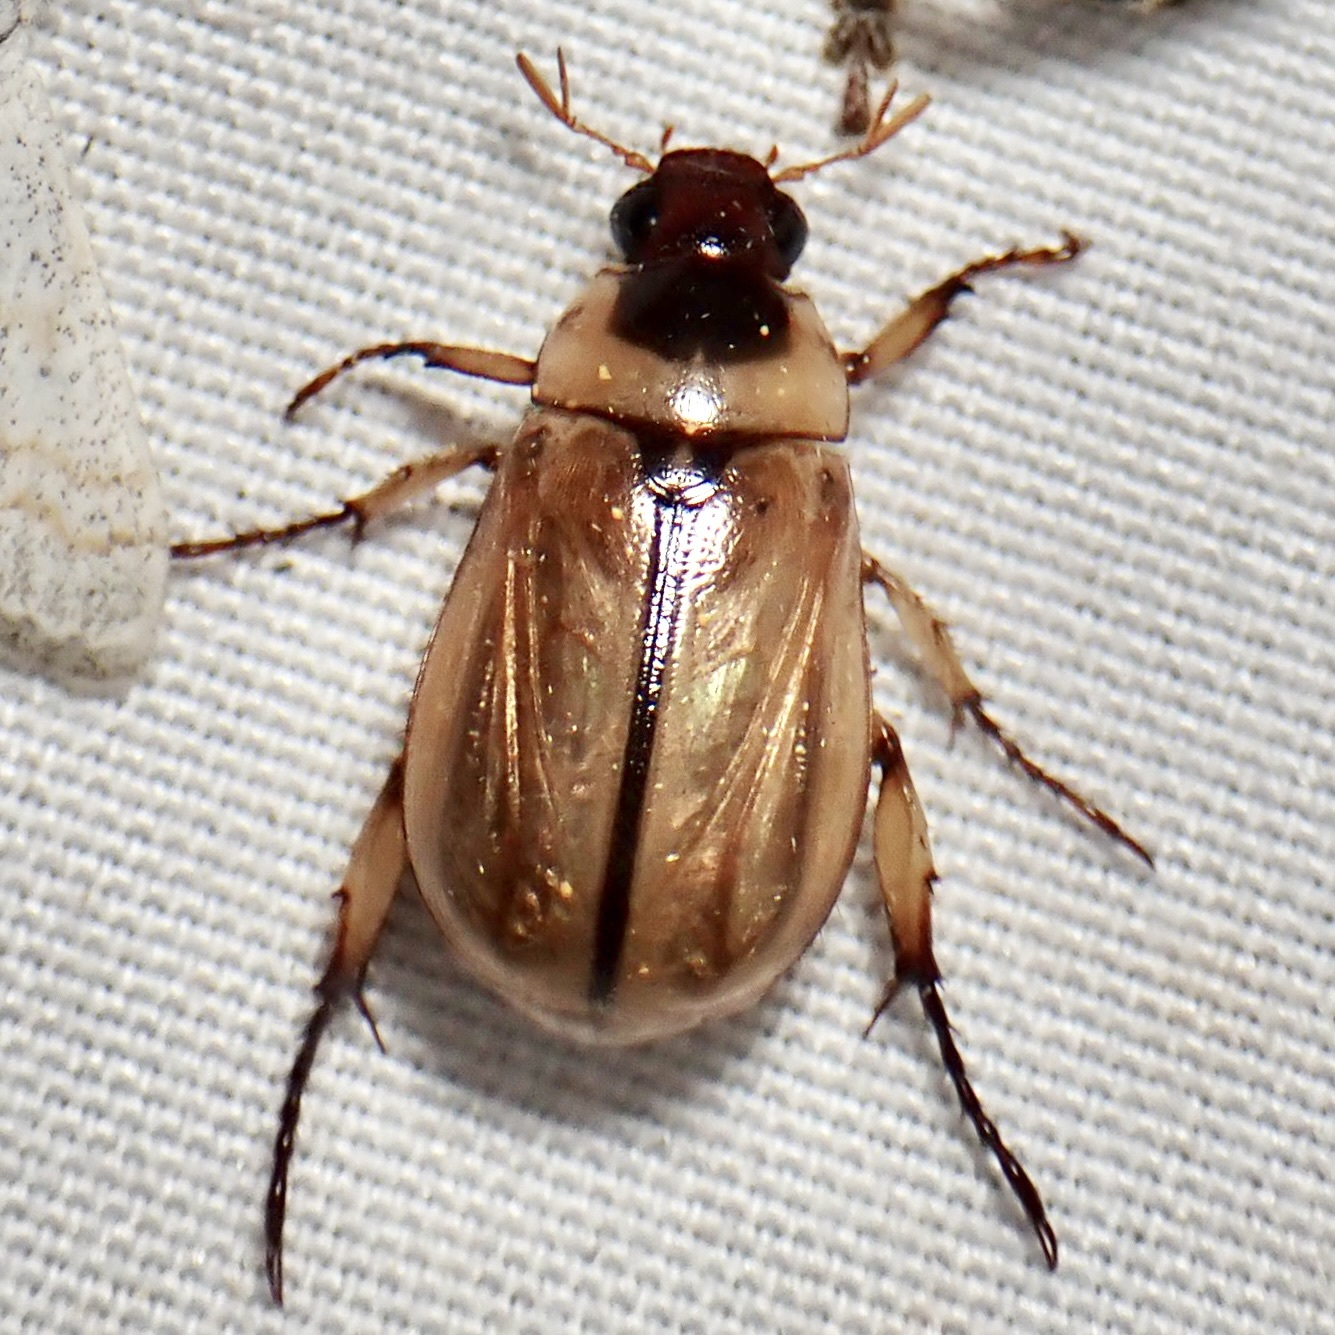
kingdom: Animalia
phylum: Arthropoda
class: Insecta
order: Coleoptera
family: Scarabaeidae
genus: Paranomala
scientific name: Paranomala delicata
